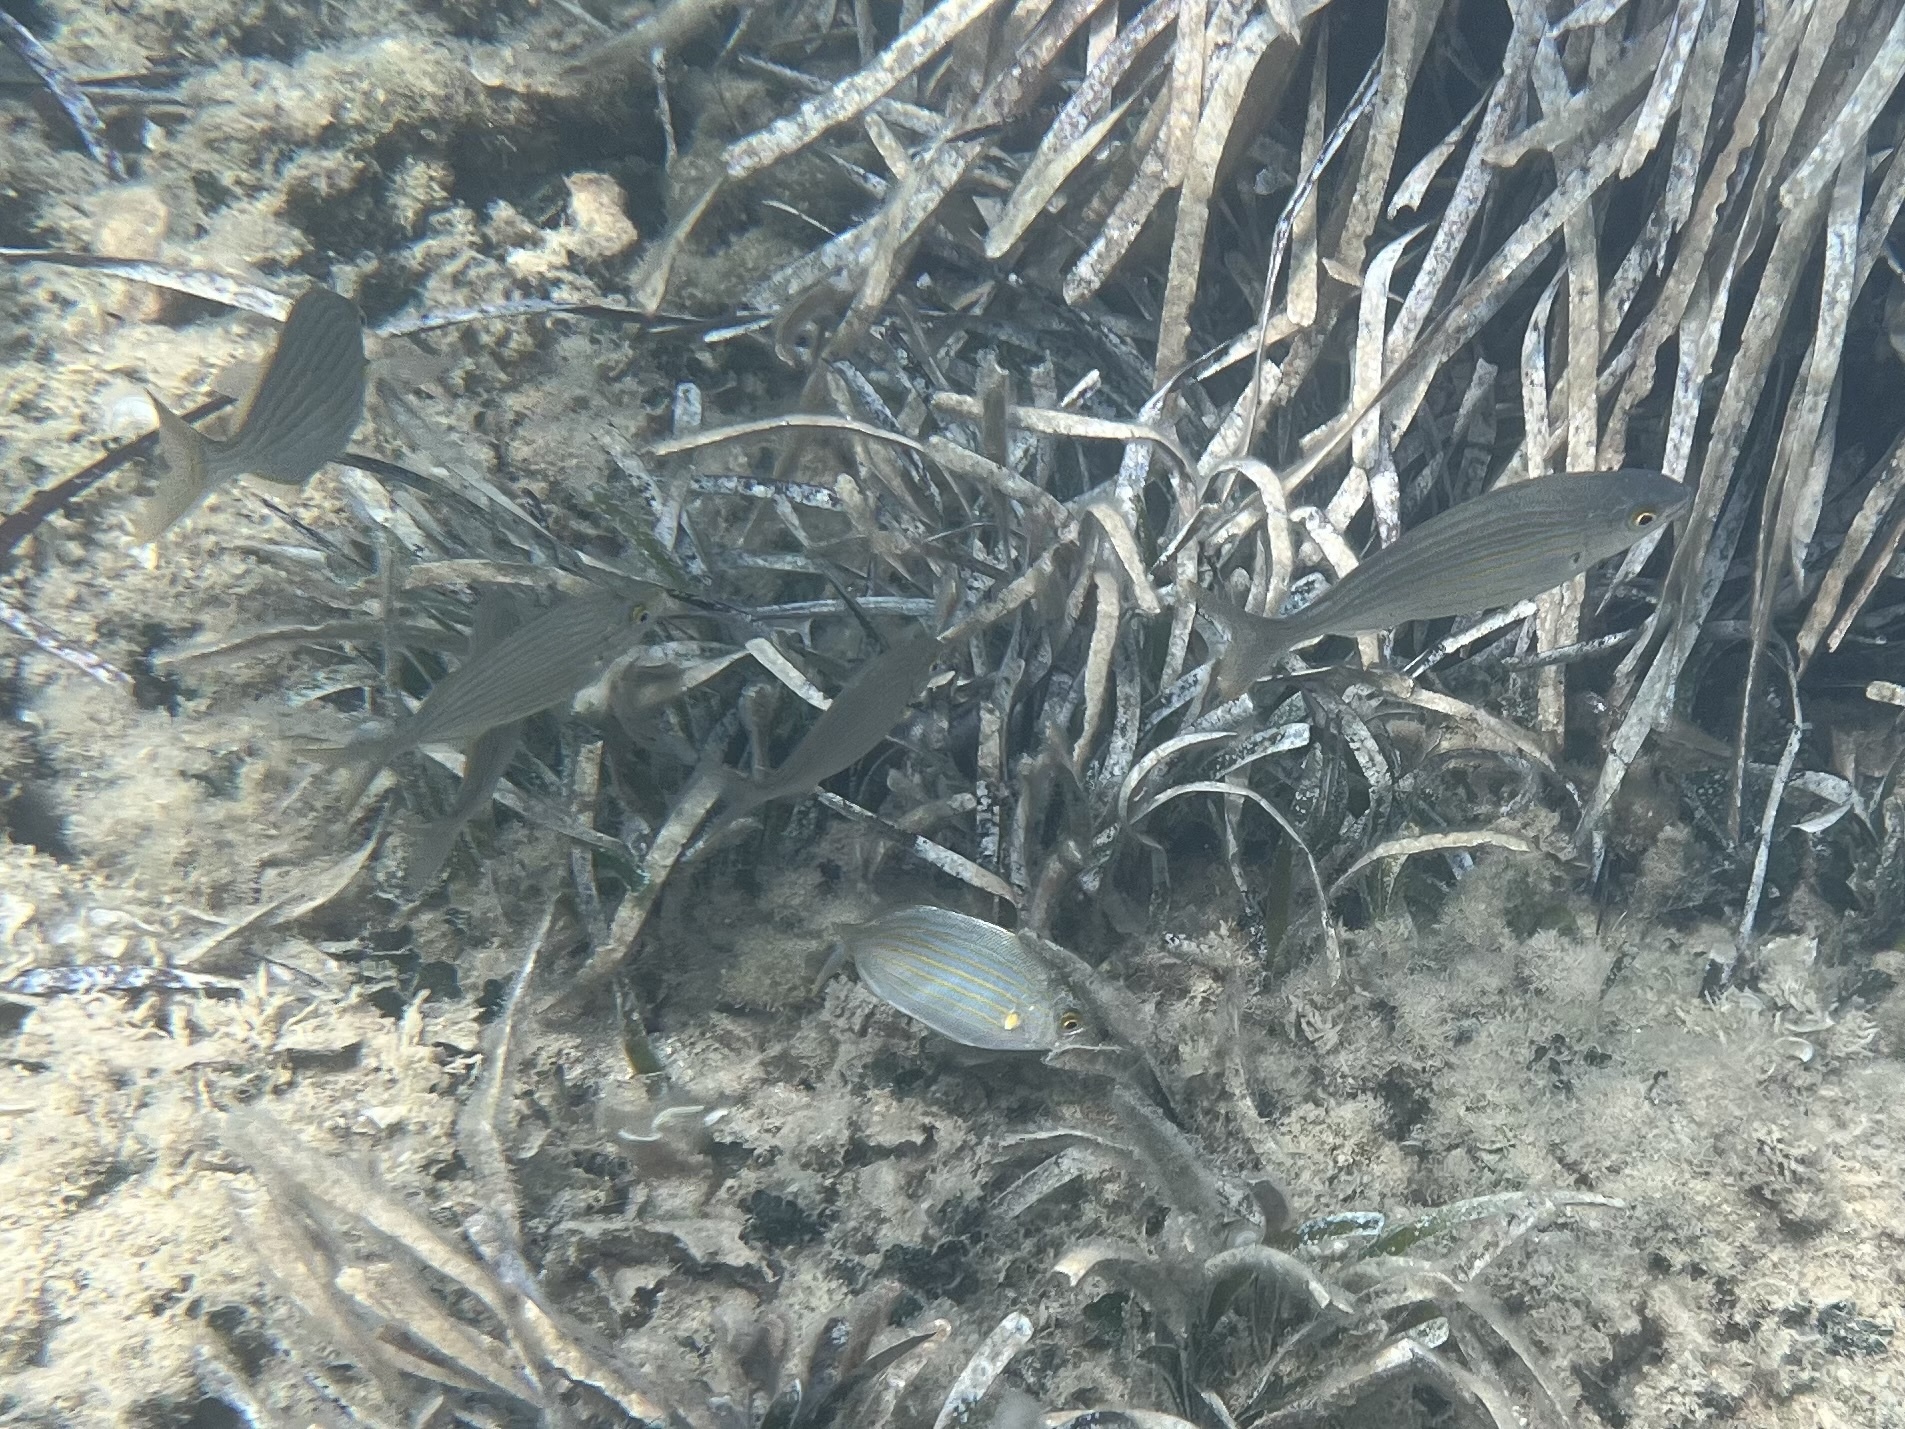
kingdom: Animalia
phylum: Chordata
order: Perciformes
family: Sparidae
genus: Sarpa
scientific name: Sarpa salpa
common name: Salema
